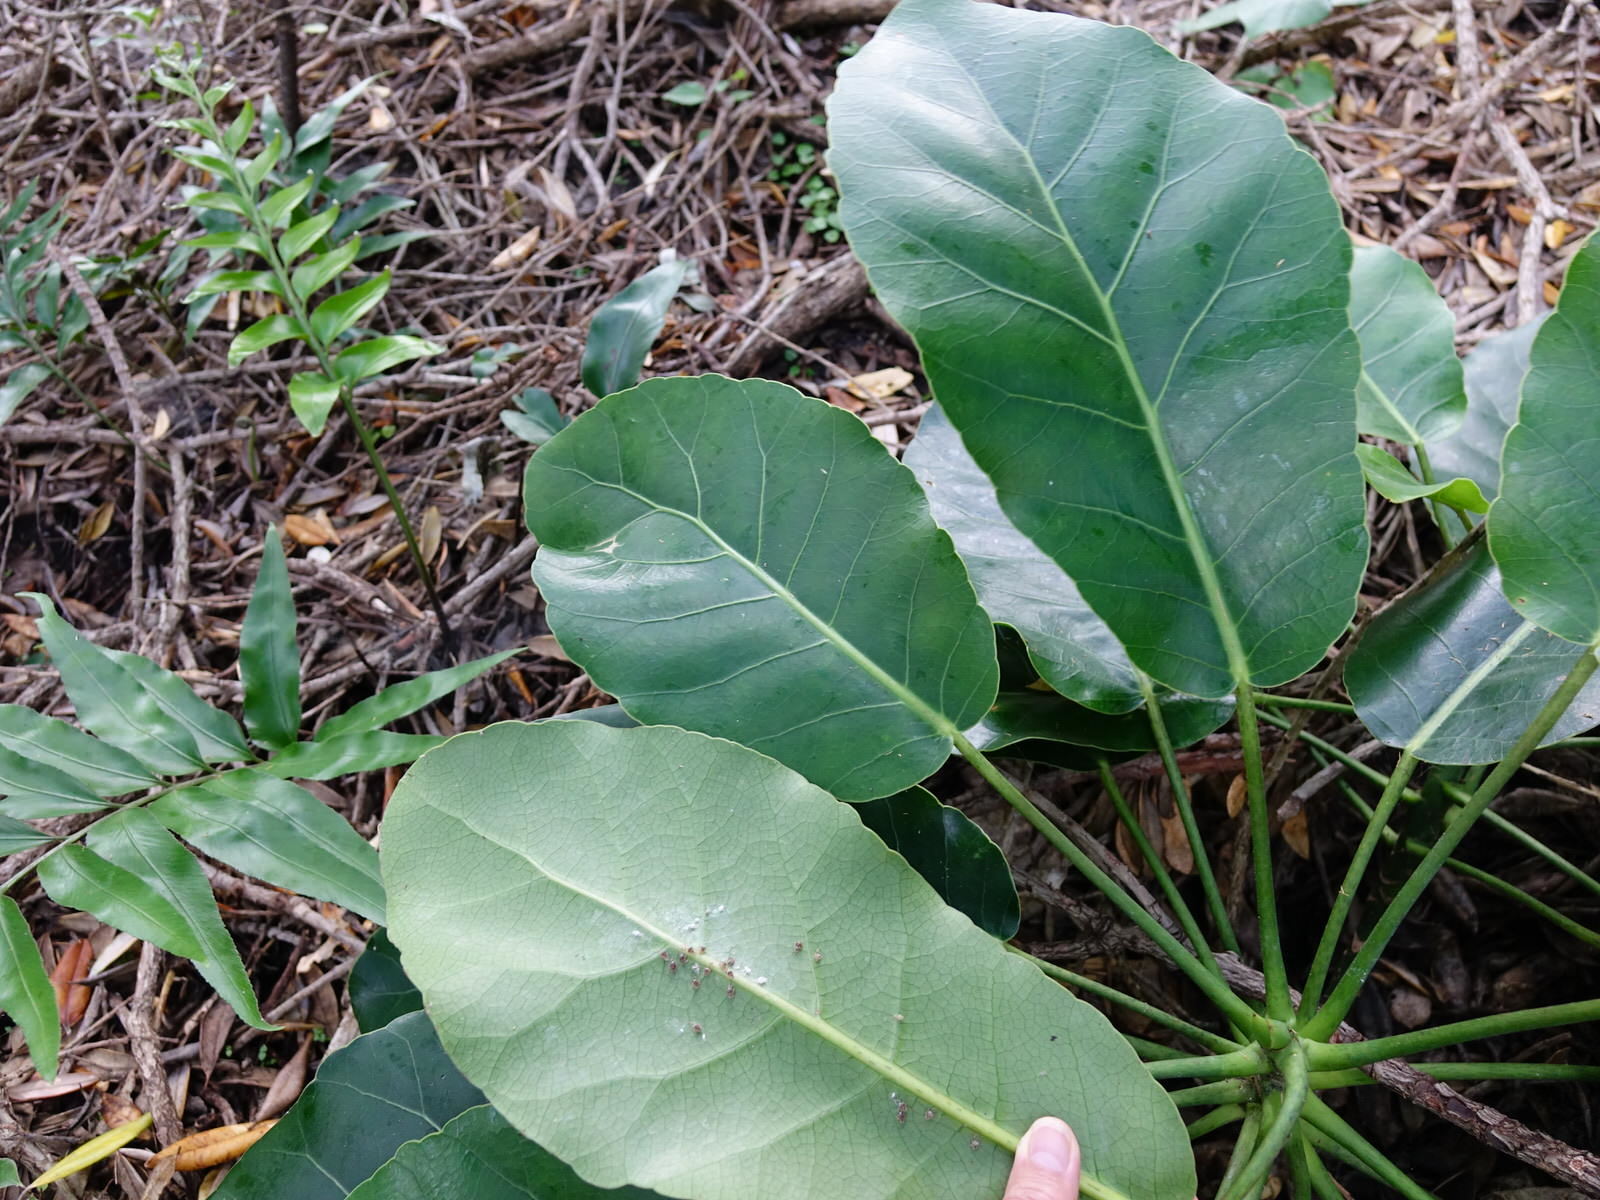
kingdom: Plantae
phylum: Tracheophyta
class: Magnoliopsida
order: Apiales
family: Araliaceae
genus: Meryta
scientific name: Meryta sinclairii
